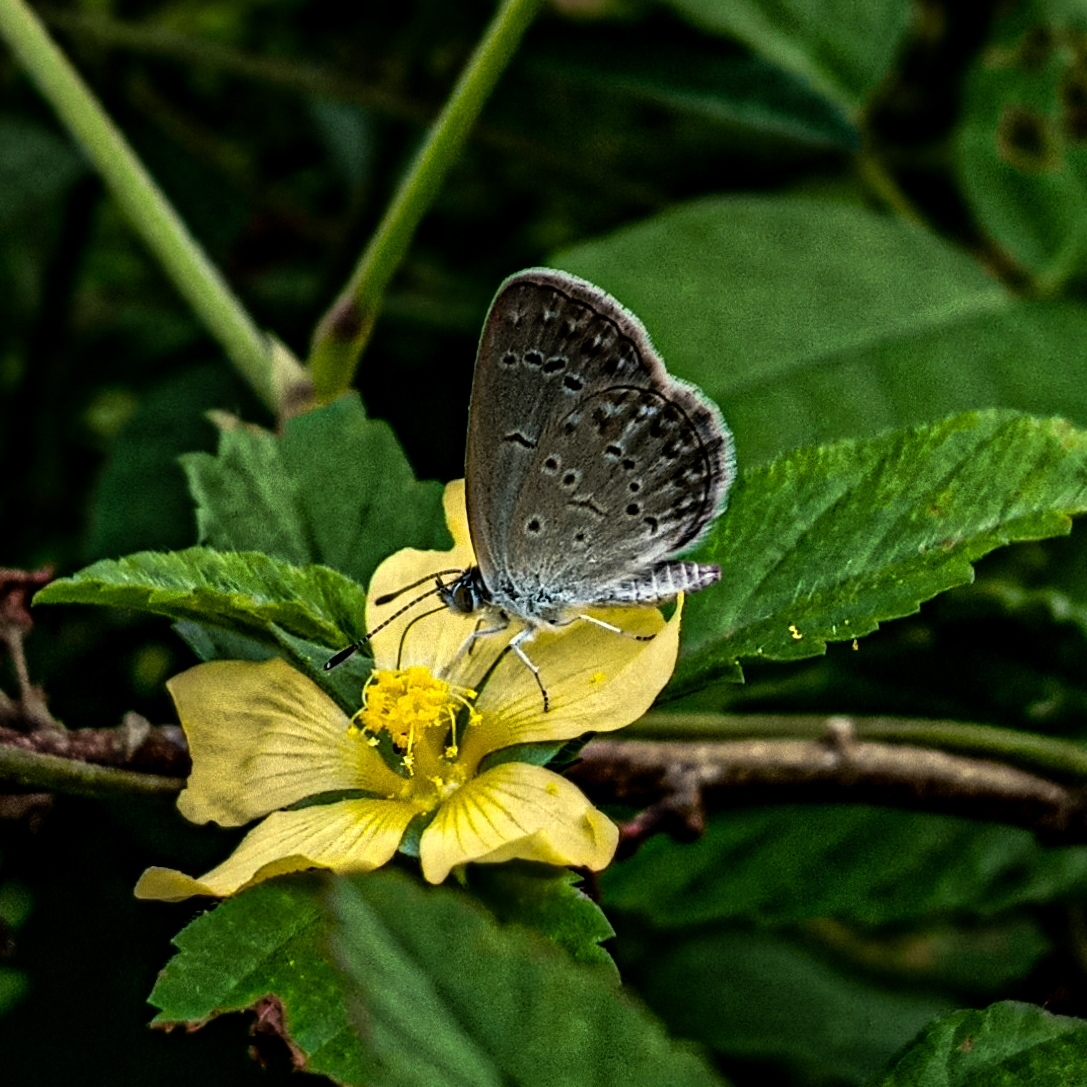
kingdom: Animalia
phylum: Arthropoda
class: Insecta
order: Lepidoptera
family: Lycaenidae
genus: Zizina
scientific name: Zizina otis
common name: Lesser grass blue
